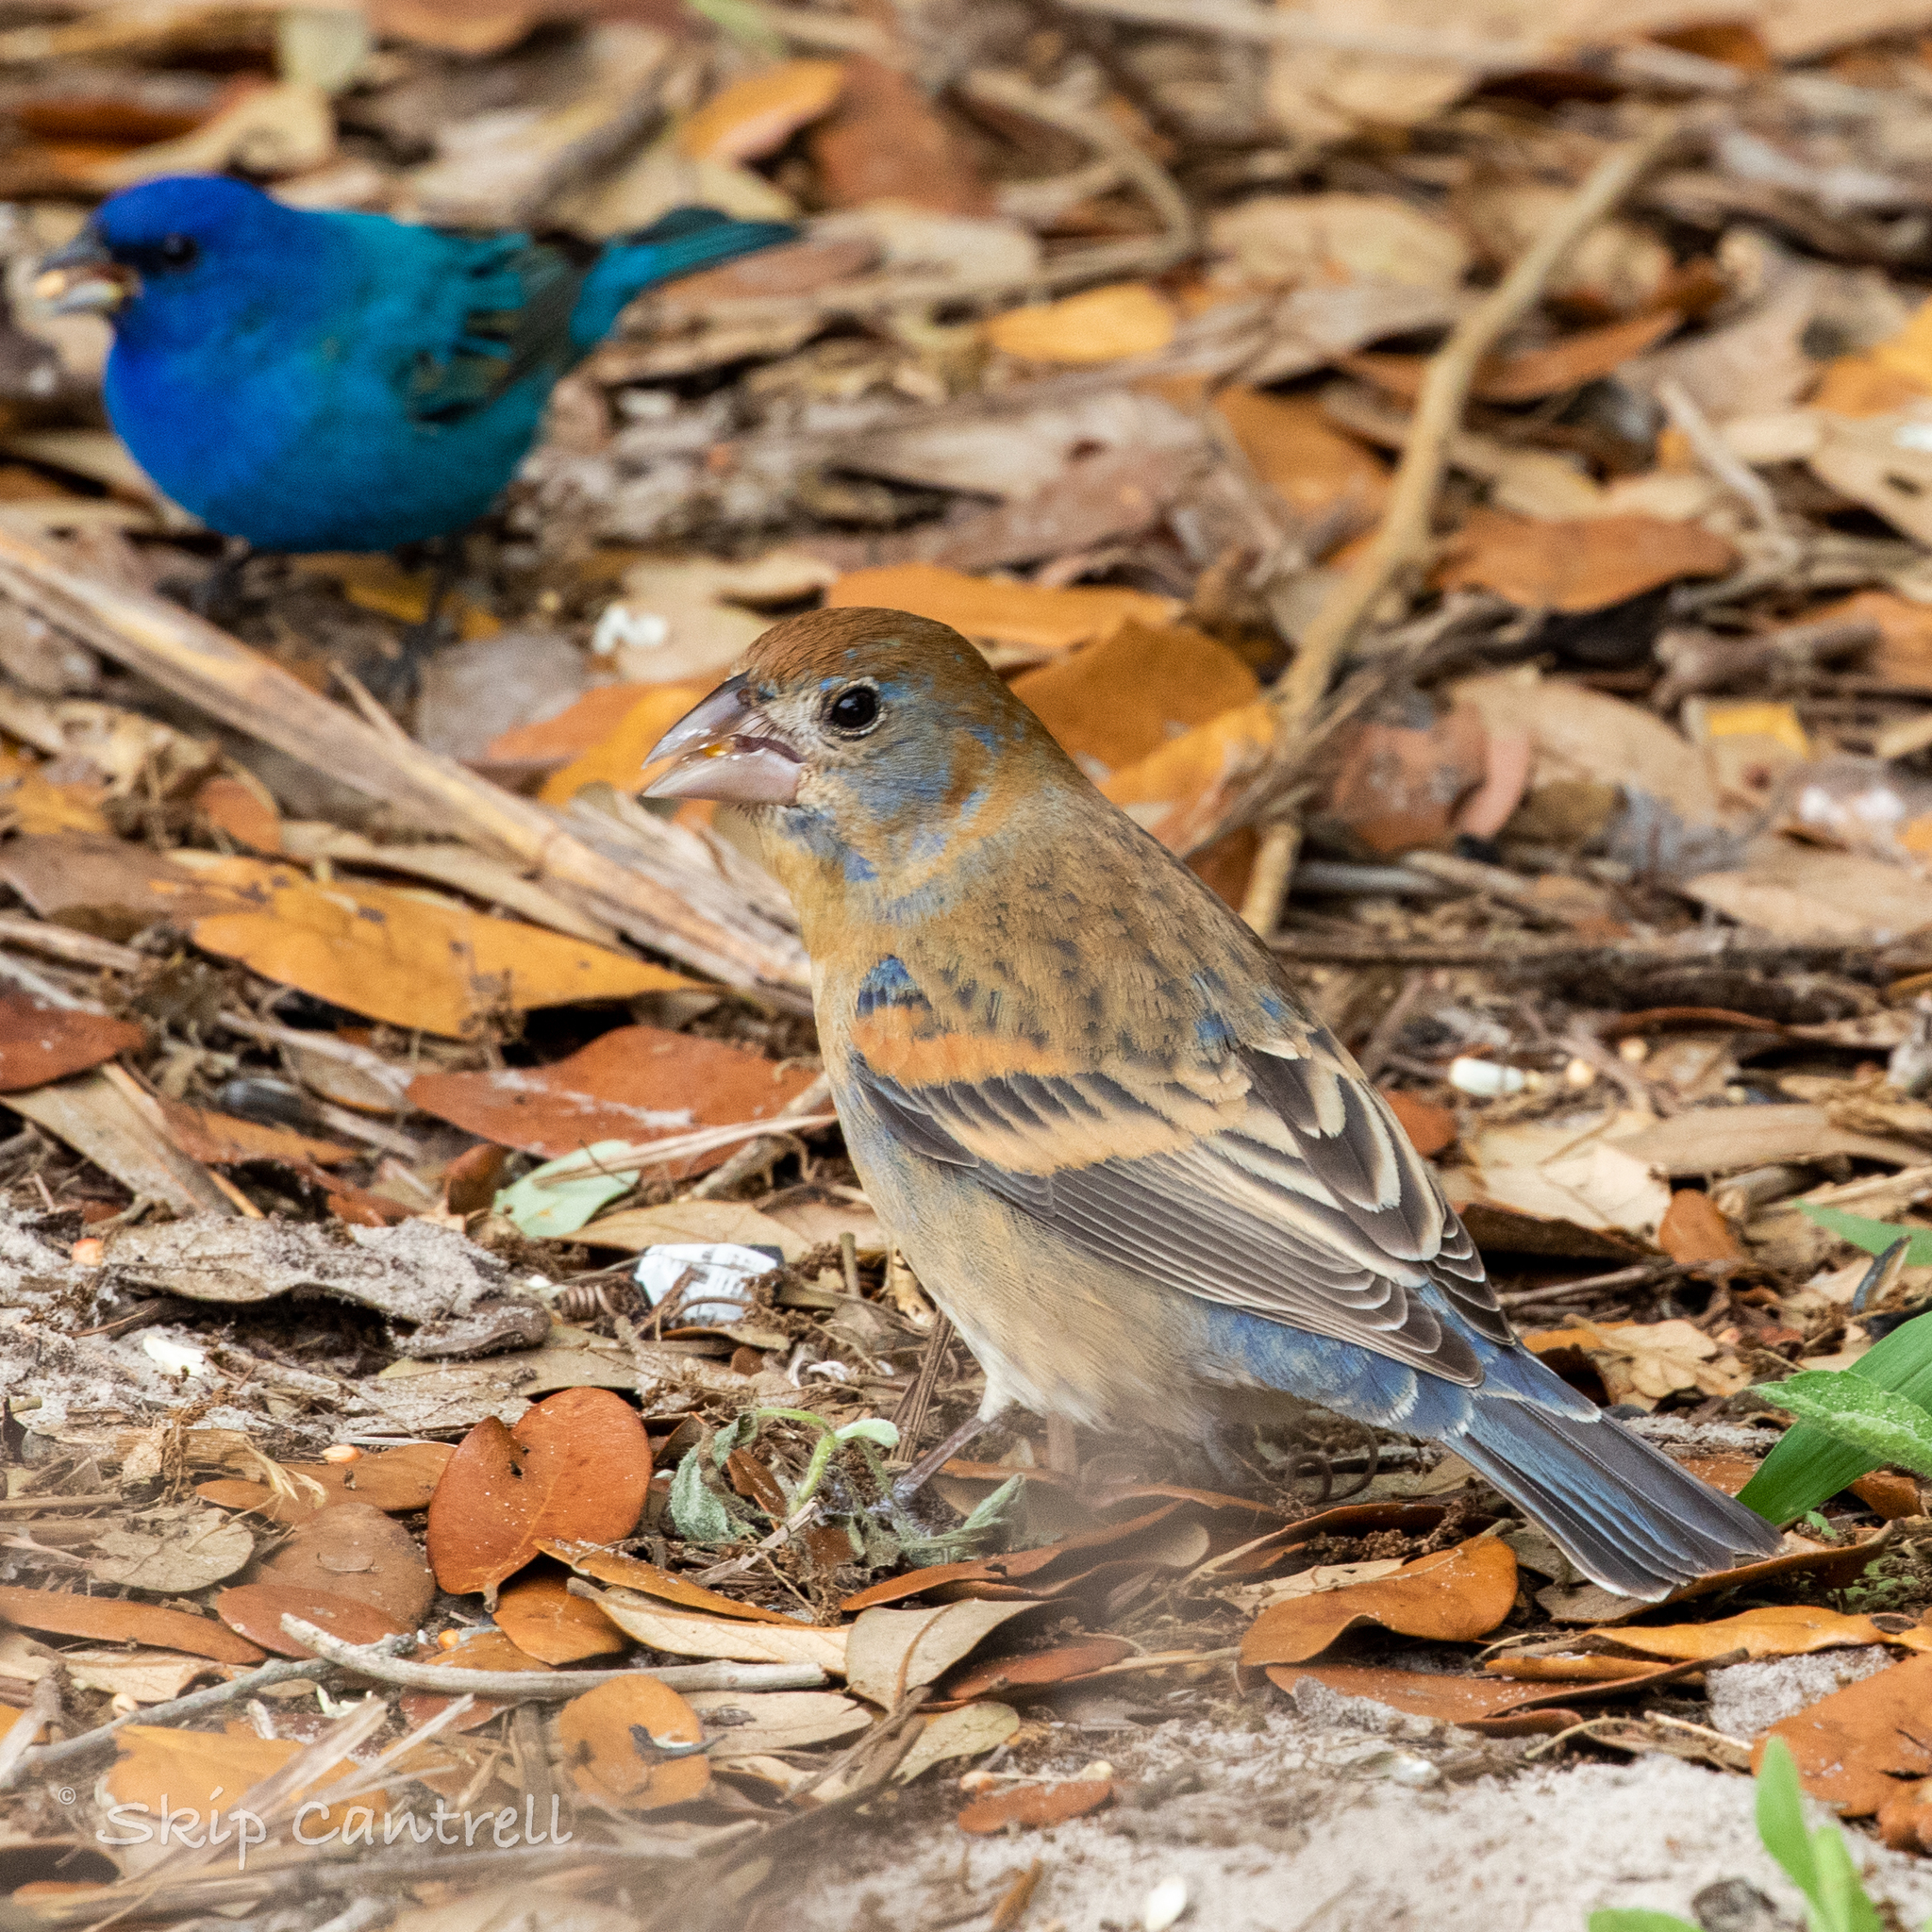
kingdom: Animalia
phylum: Chordata
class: Aves
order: Passeriformes
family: Cardinalidae
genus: Passerina
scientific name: Passerina caerulea
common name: Blue grosbeak
